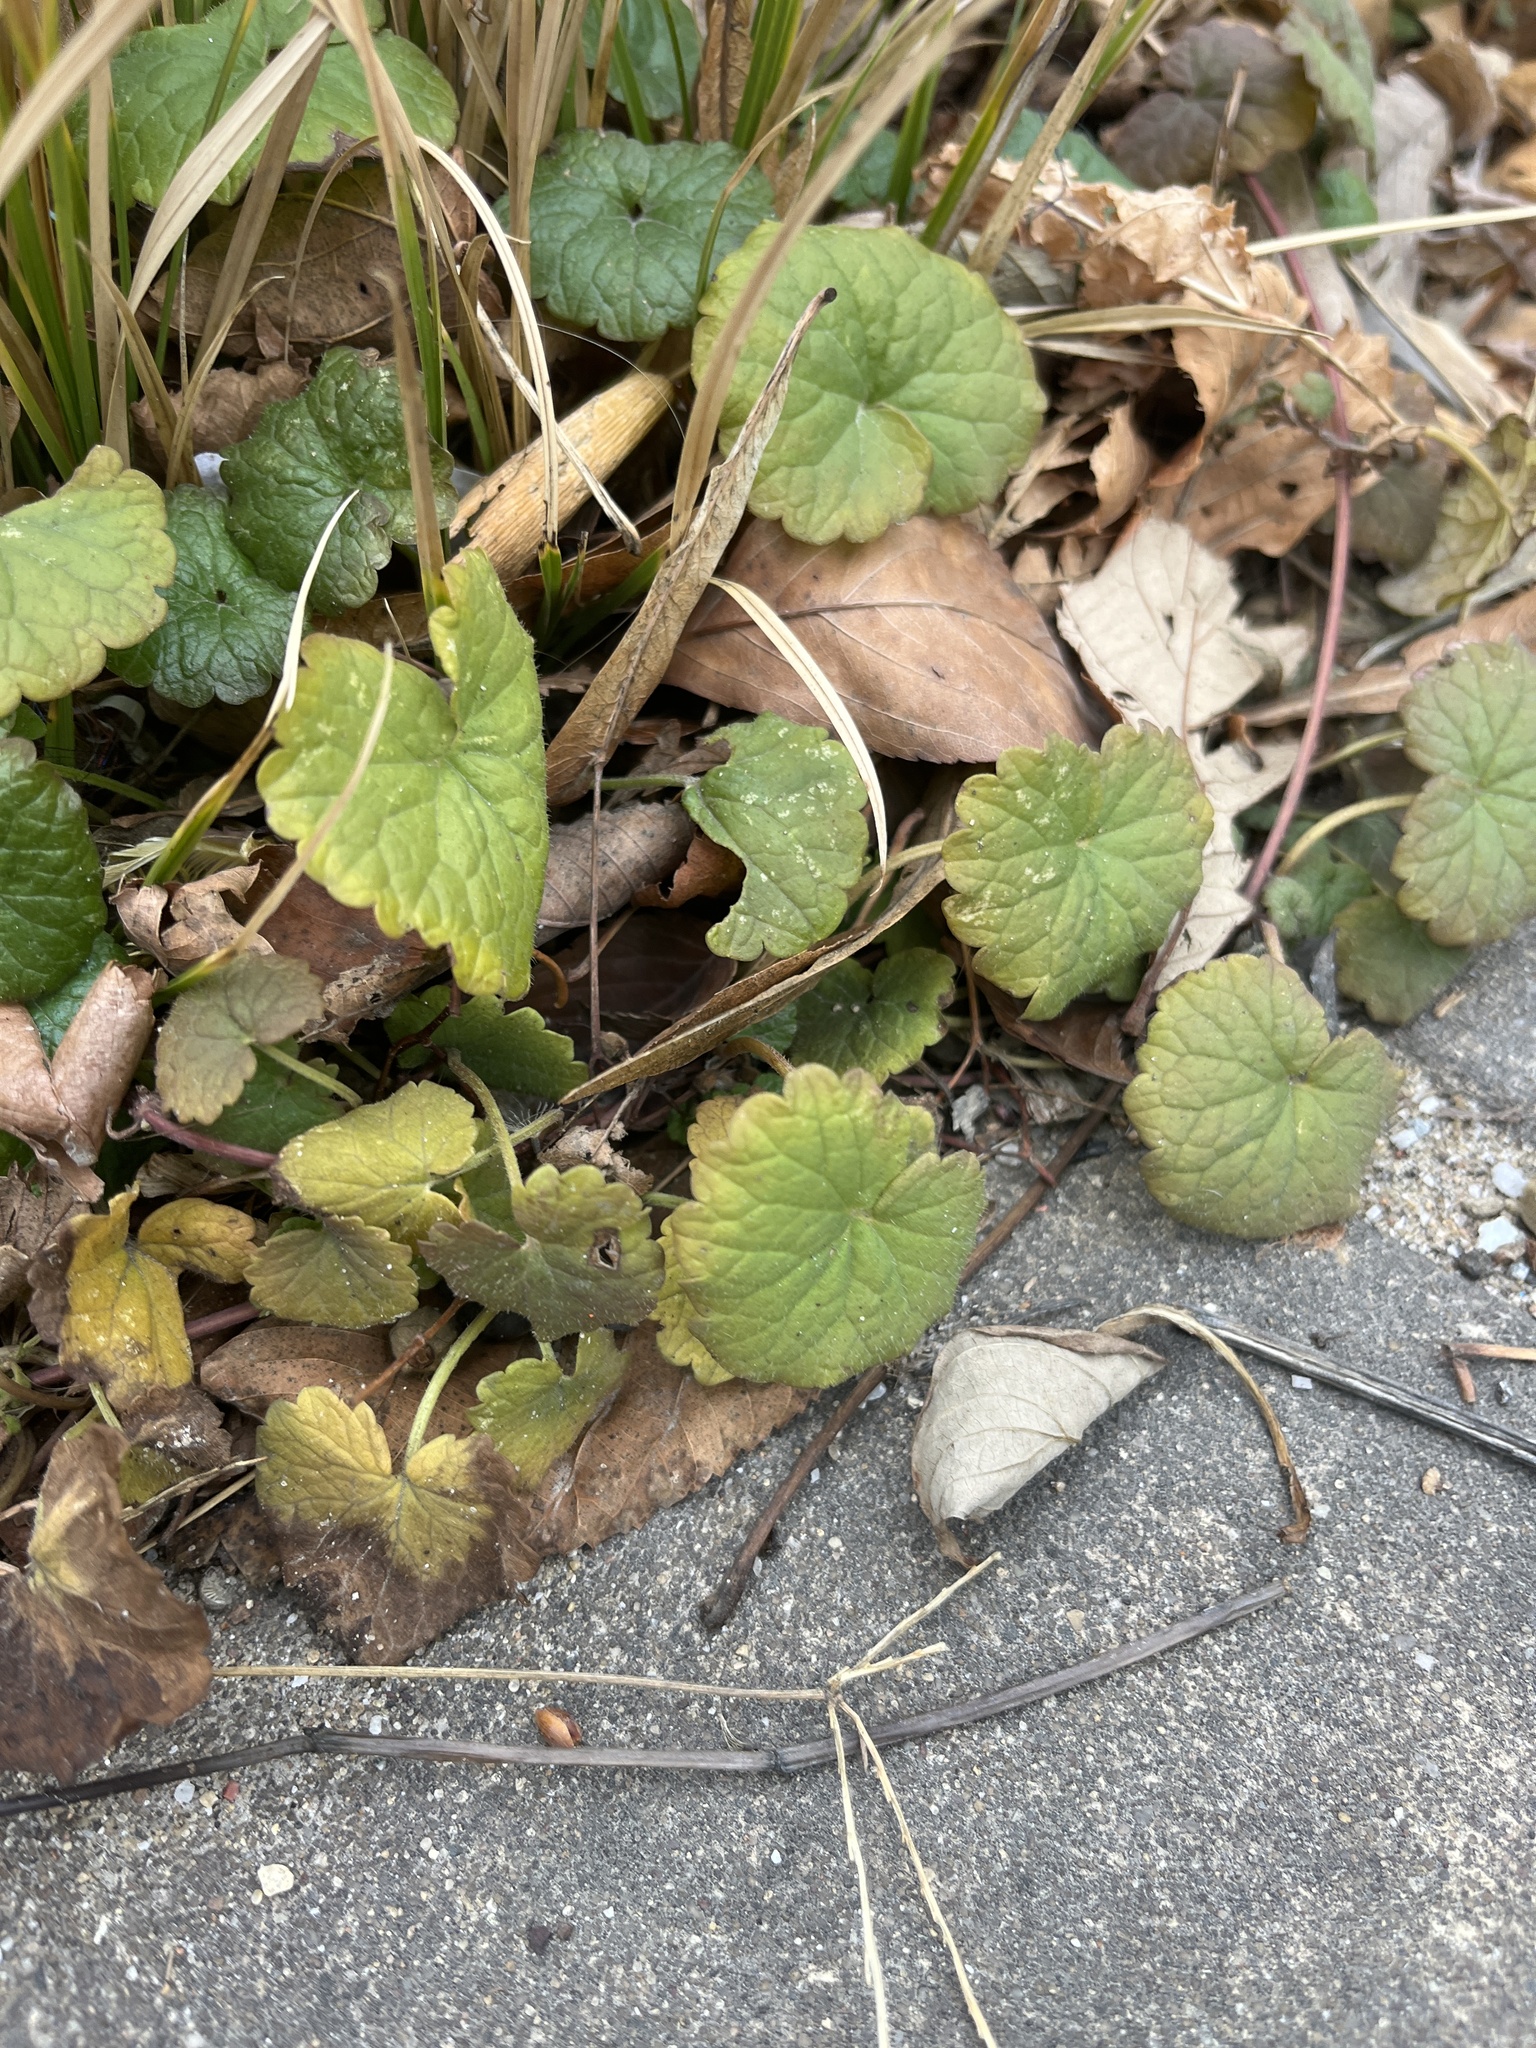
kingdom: Plantae
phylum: Tracheophyta
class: Magnoliopsida
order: Lamiales
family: Lamiaceae
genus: Glechoma
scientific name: Glechoma hederacea
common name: Ground ivy
